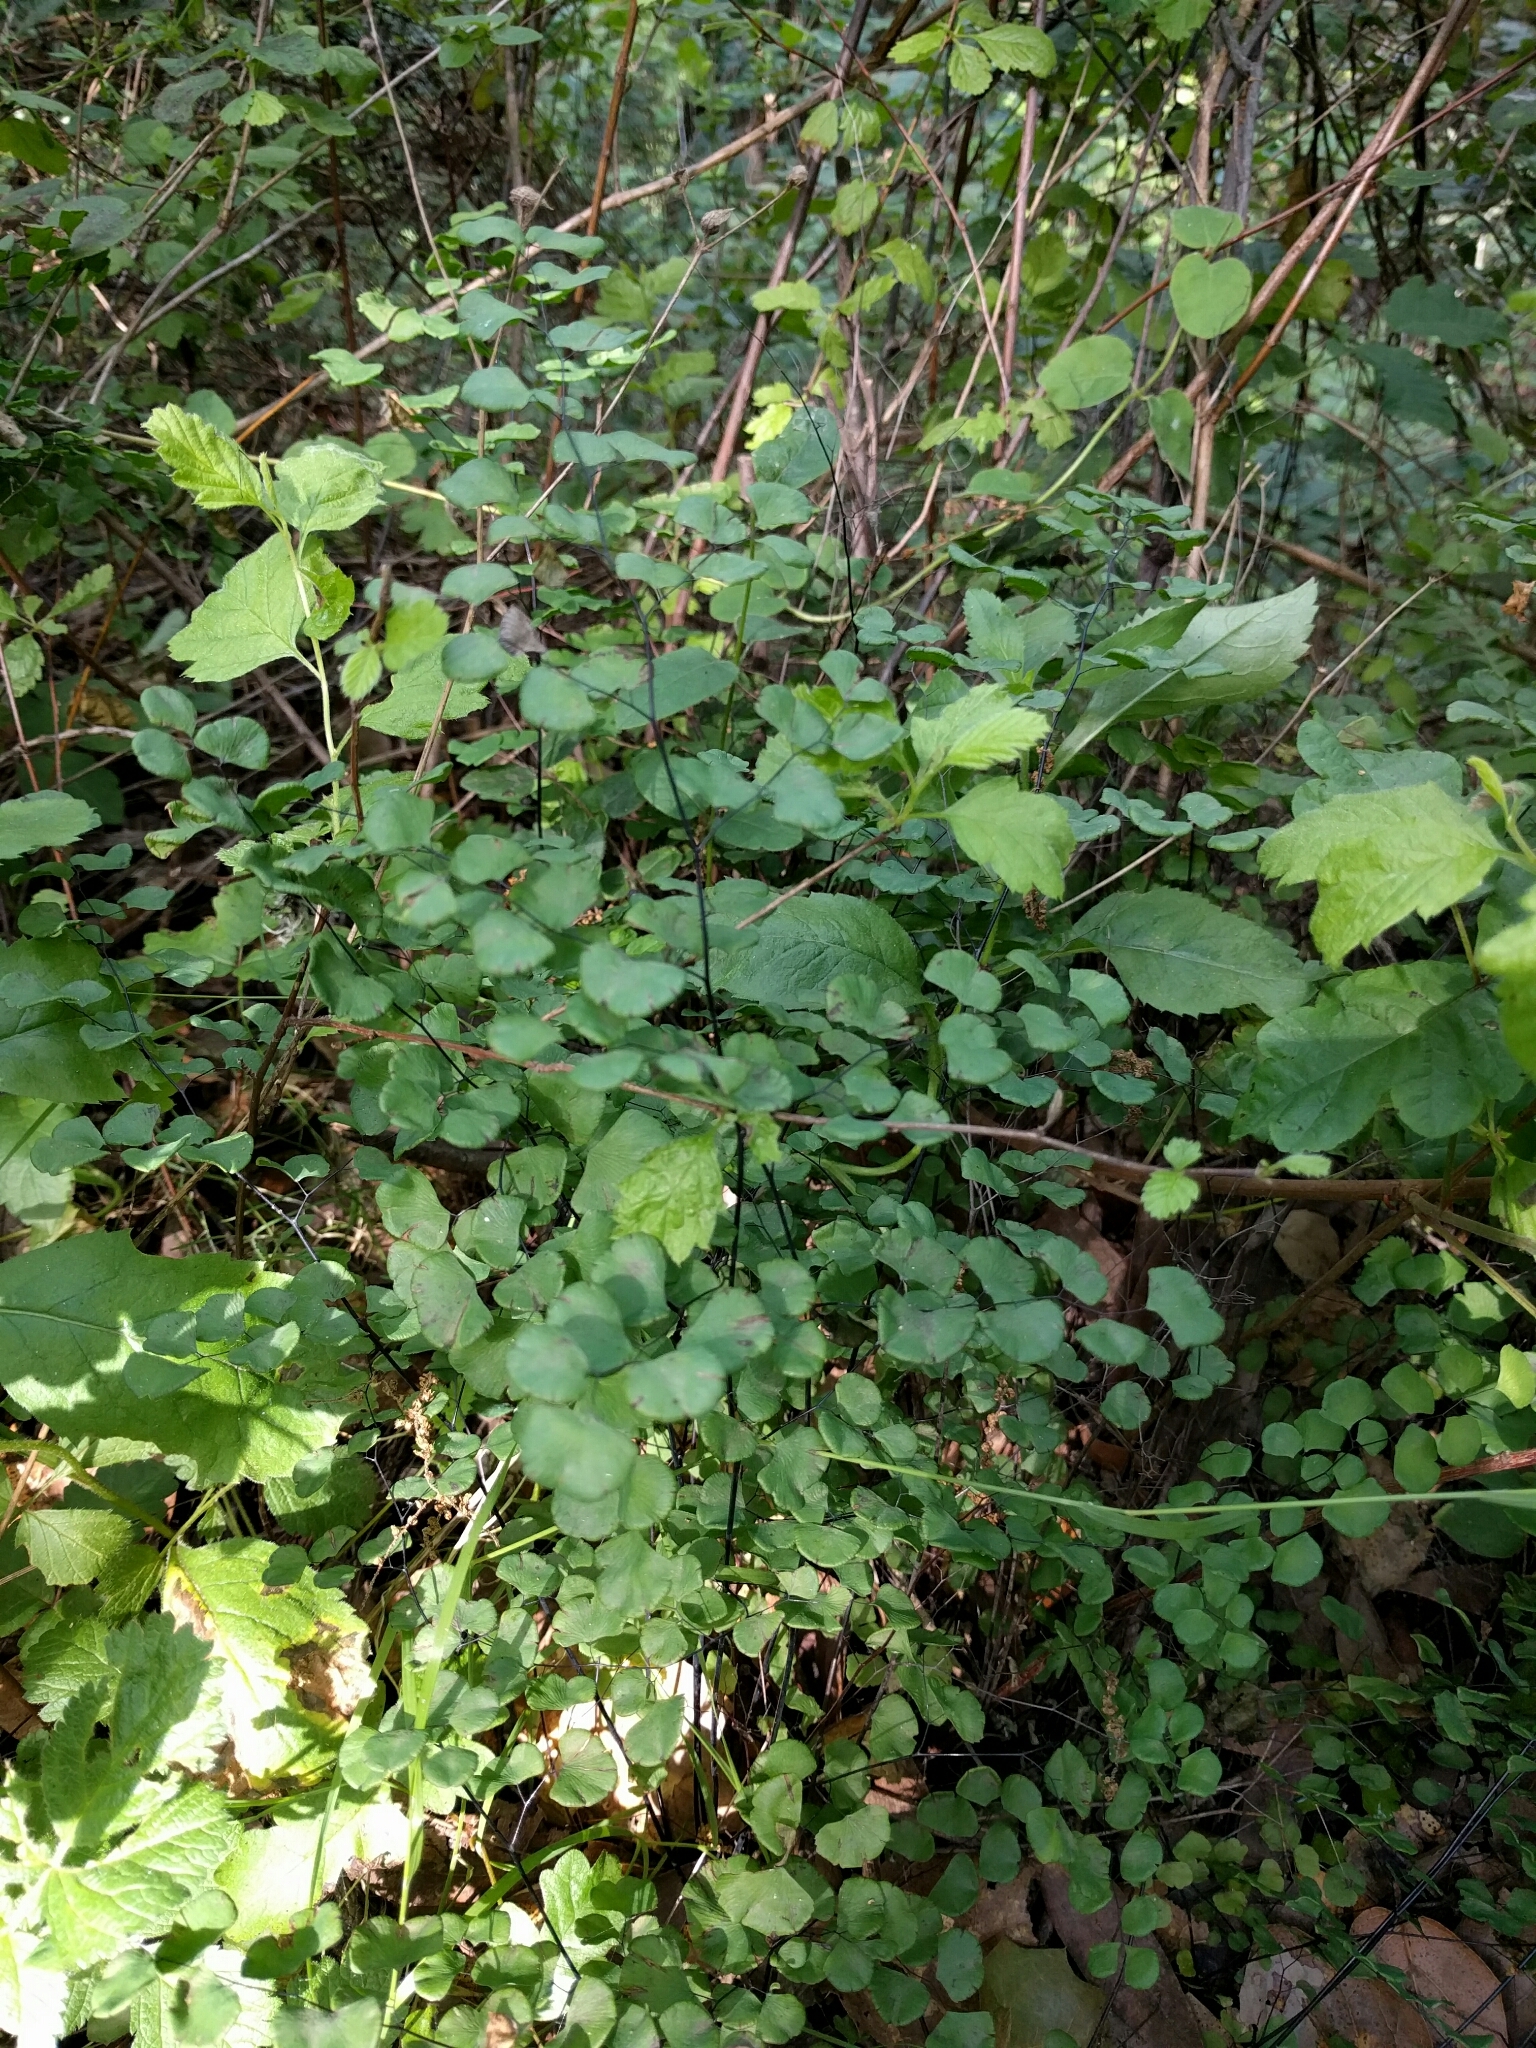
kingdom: Plantae
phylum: Tracheophyta
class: Polypodiopsida
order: Polypodiales
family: Pteridaceae
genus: Adiantum
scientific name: Adiantum jordanii
